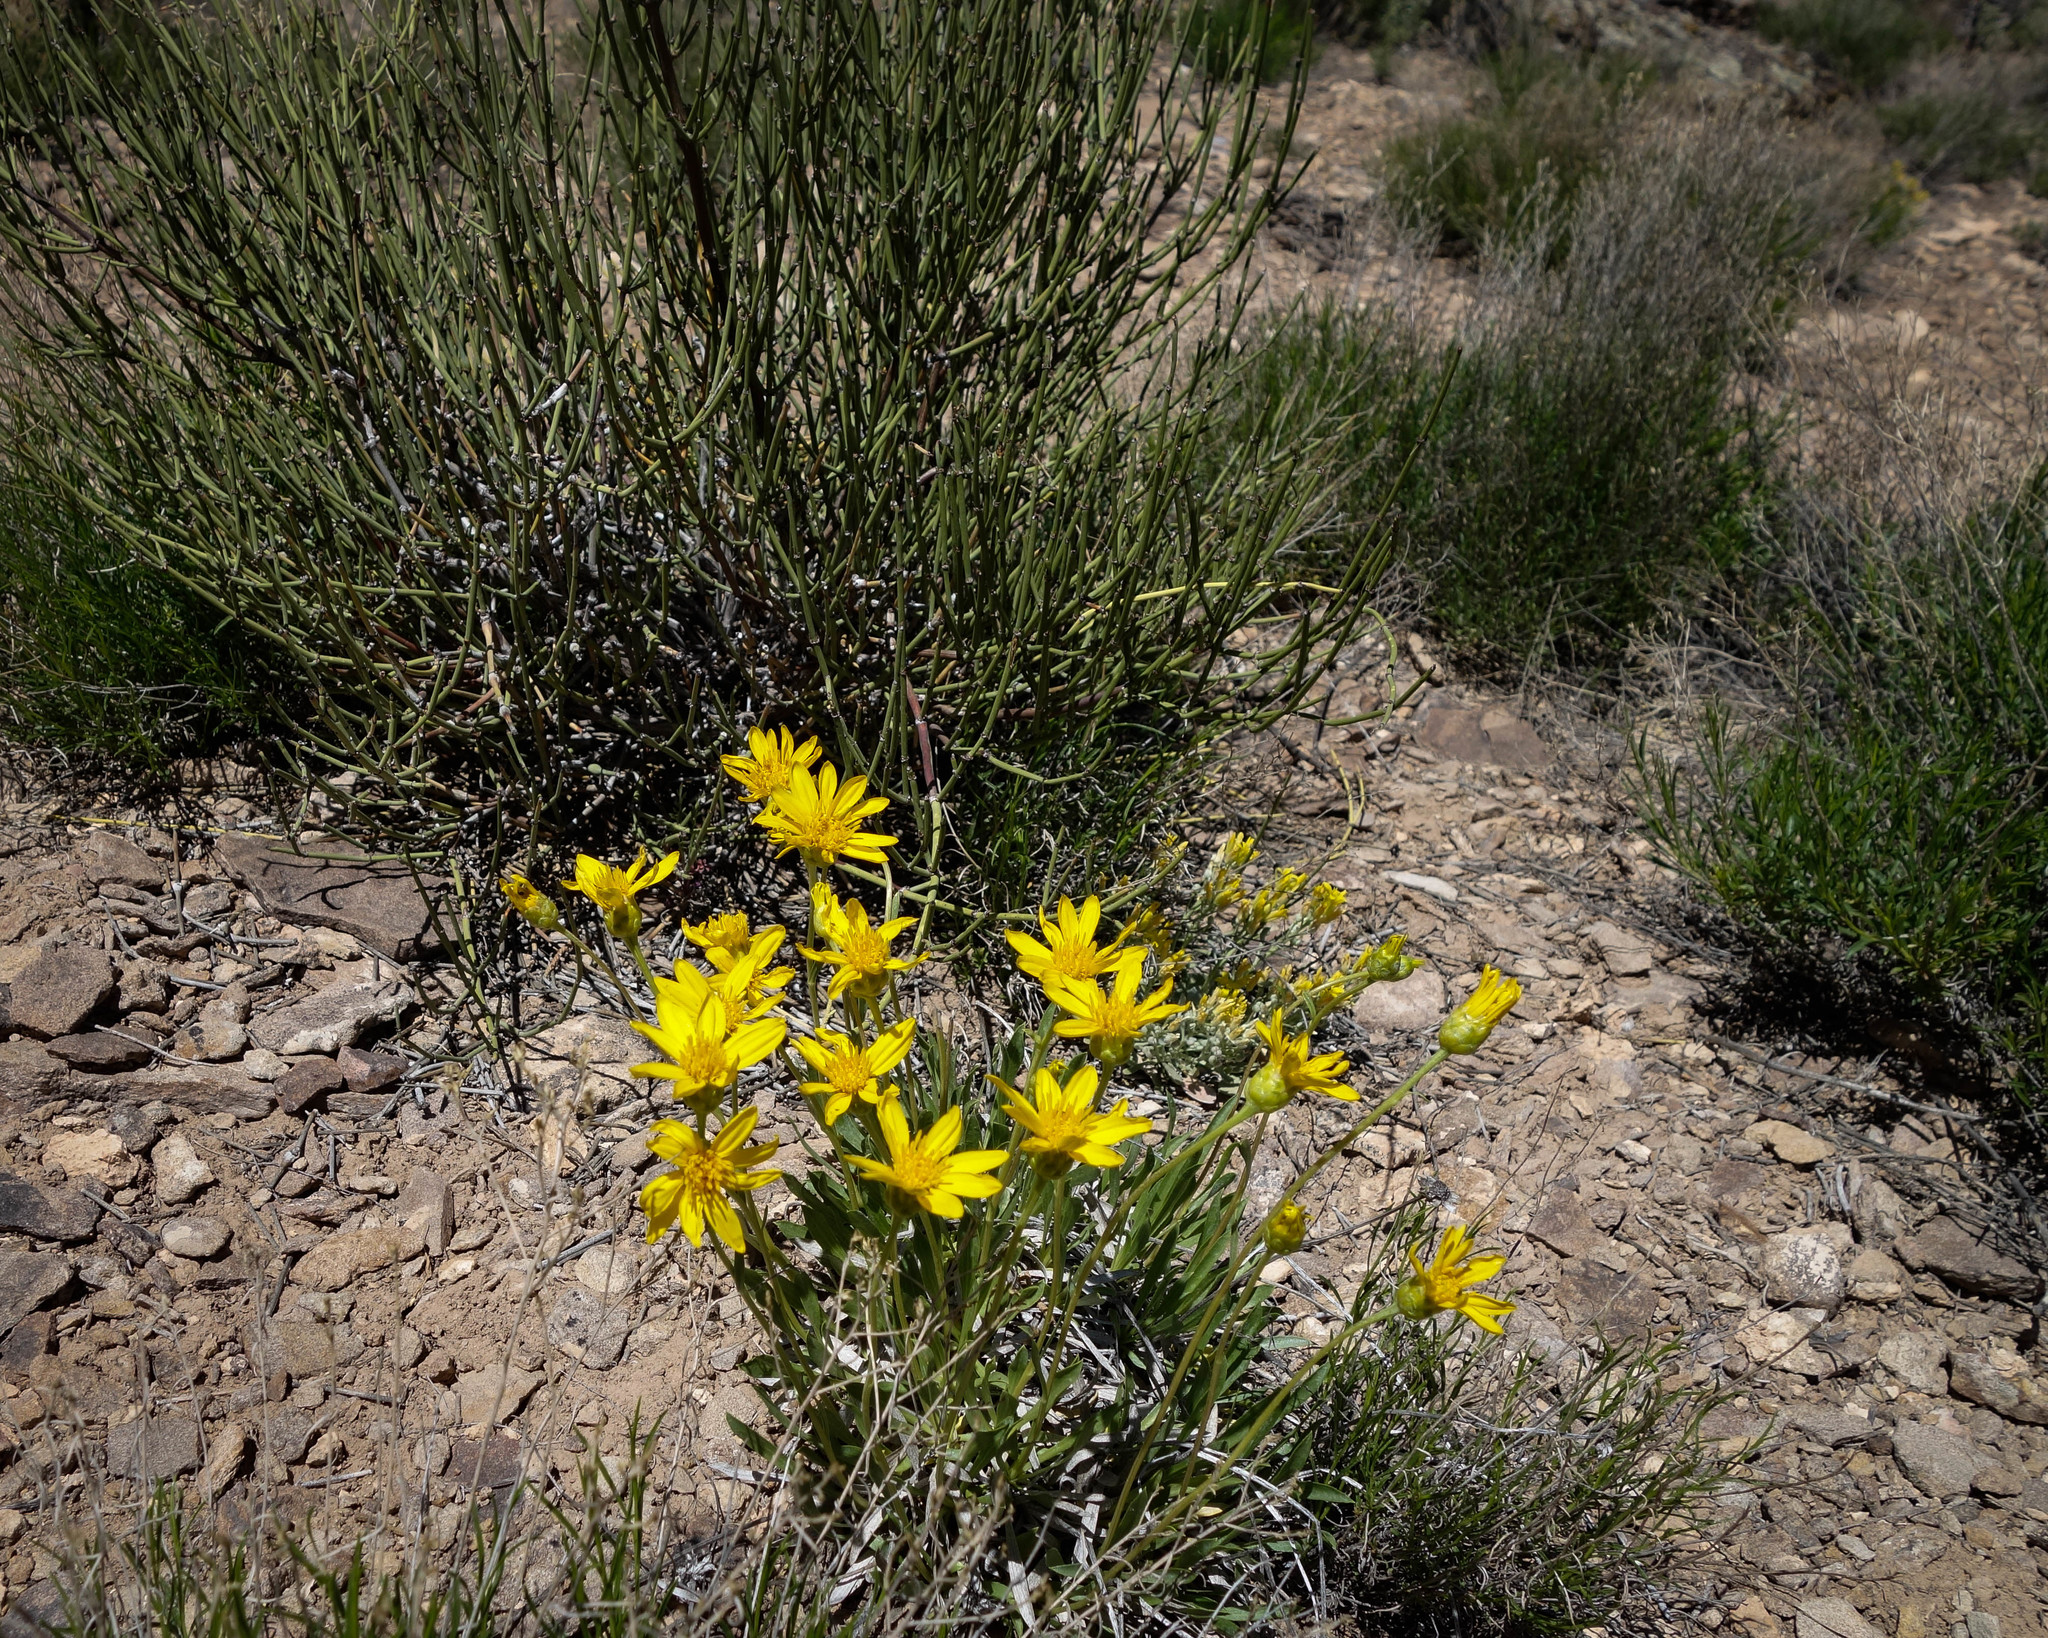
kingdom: Plantae
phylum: Tracheophyta
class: Magnoliopsida
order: Asterales
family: Asteraceae
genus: Stenotus
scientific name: Stenotus armerioides
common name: Thrifty goldenweed
